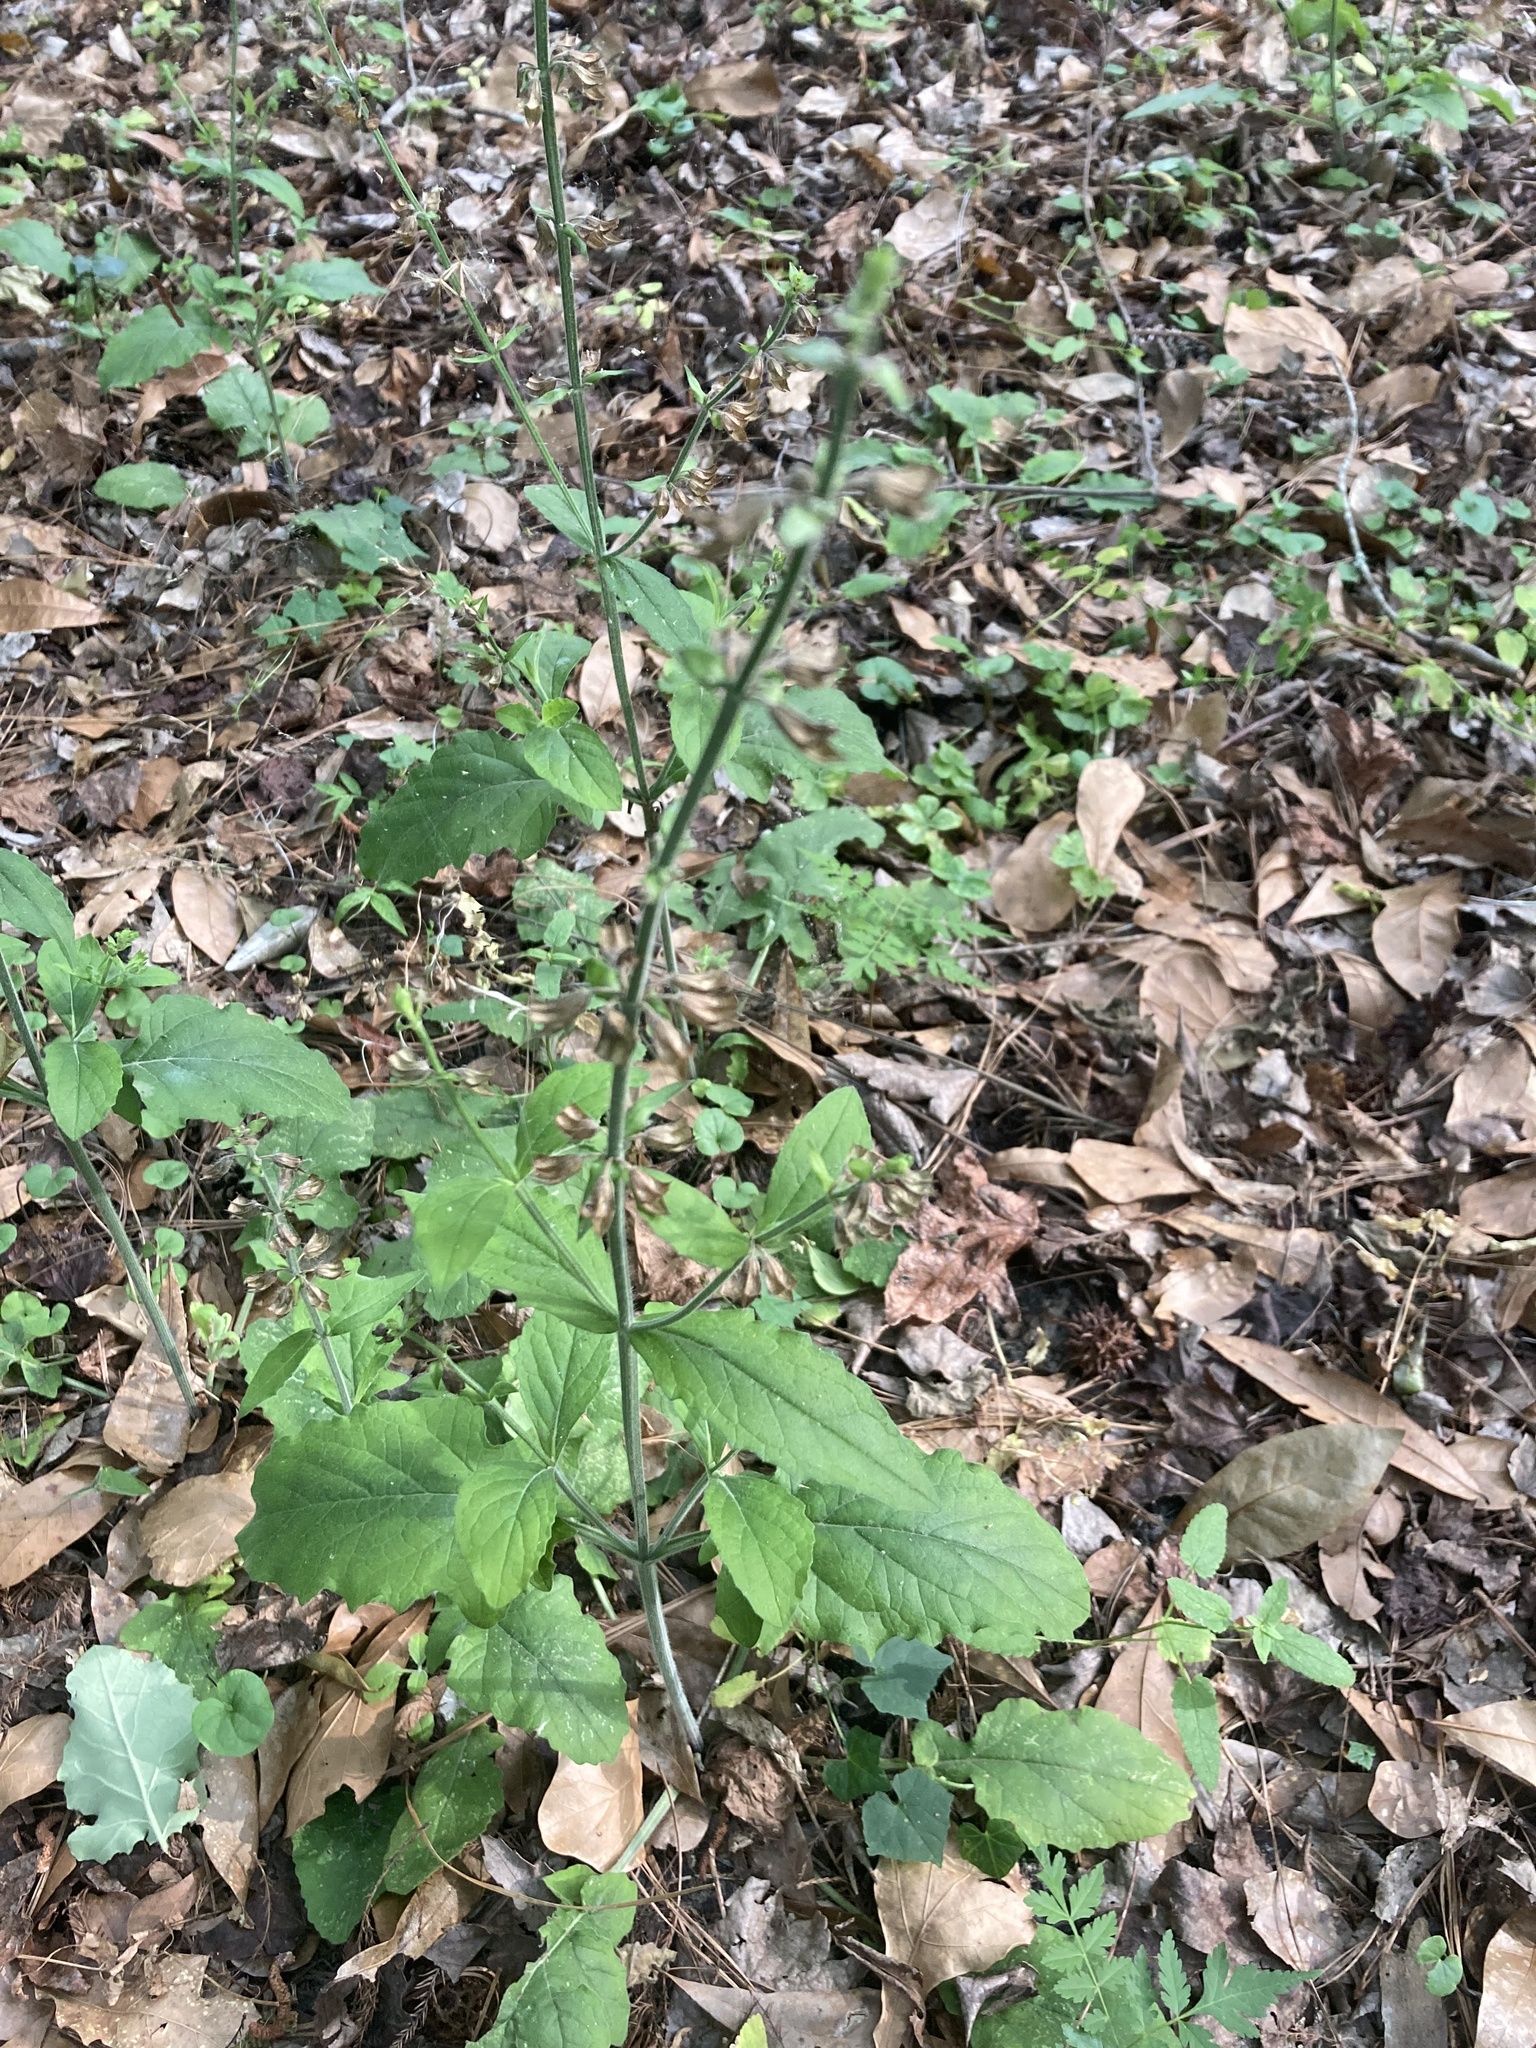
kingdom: Plantae
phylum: Tracheophyta
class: Magnoliopsida
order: Lamiales
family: Lamiaceae
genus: Salvia
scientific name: Salvia lyrata
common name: Cancerweed
